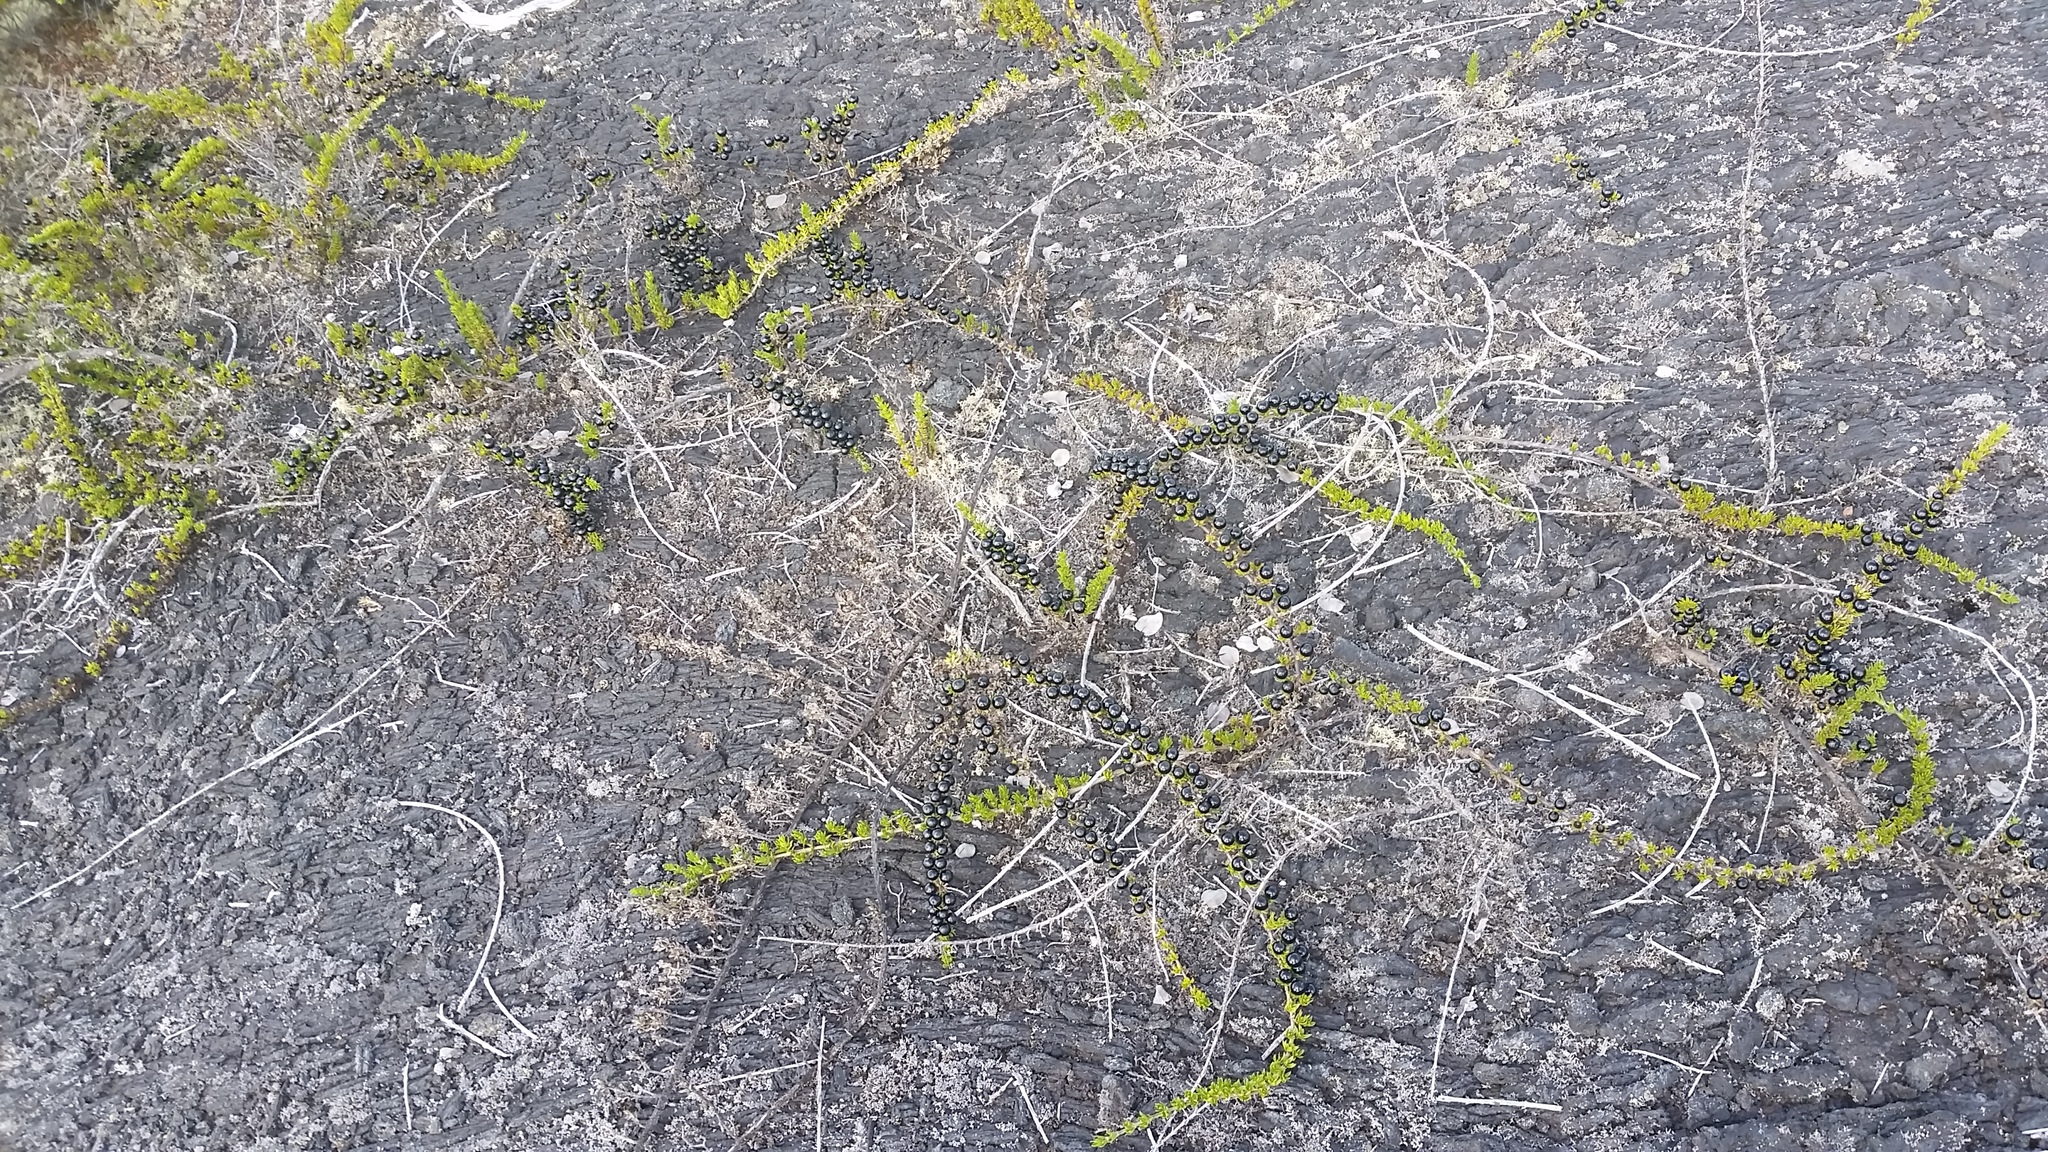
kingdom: Plantae
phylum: Tracheophyta
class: Magnoliopsida
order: Gentianales
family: Rubiaceae
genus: Coprosma
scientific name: Coprosma ernodeoides
